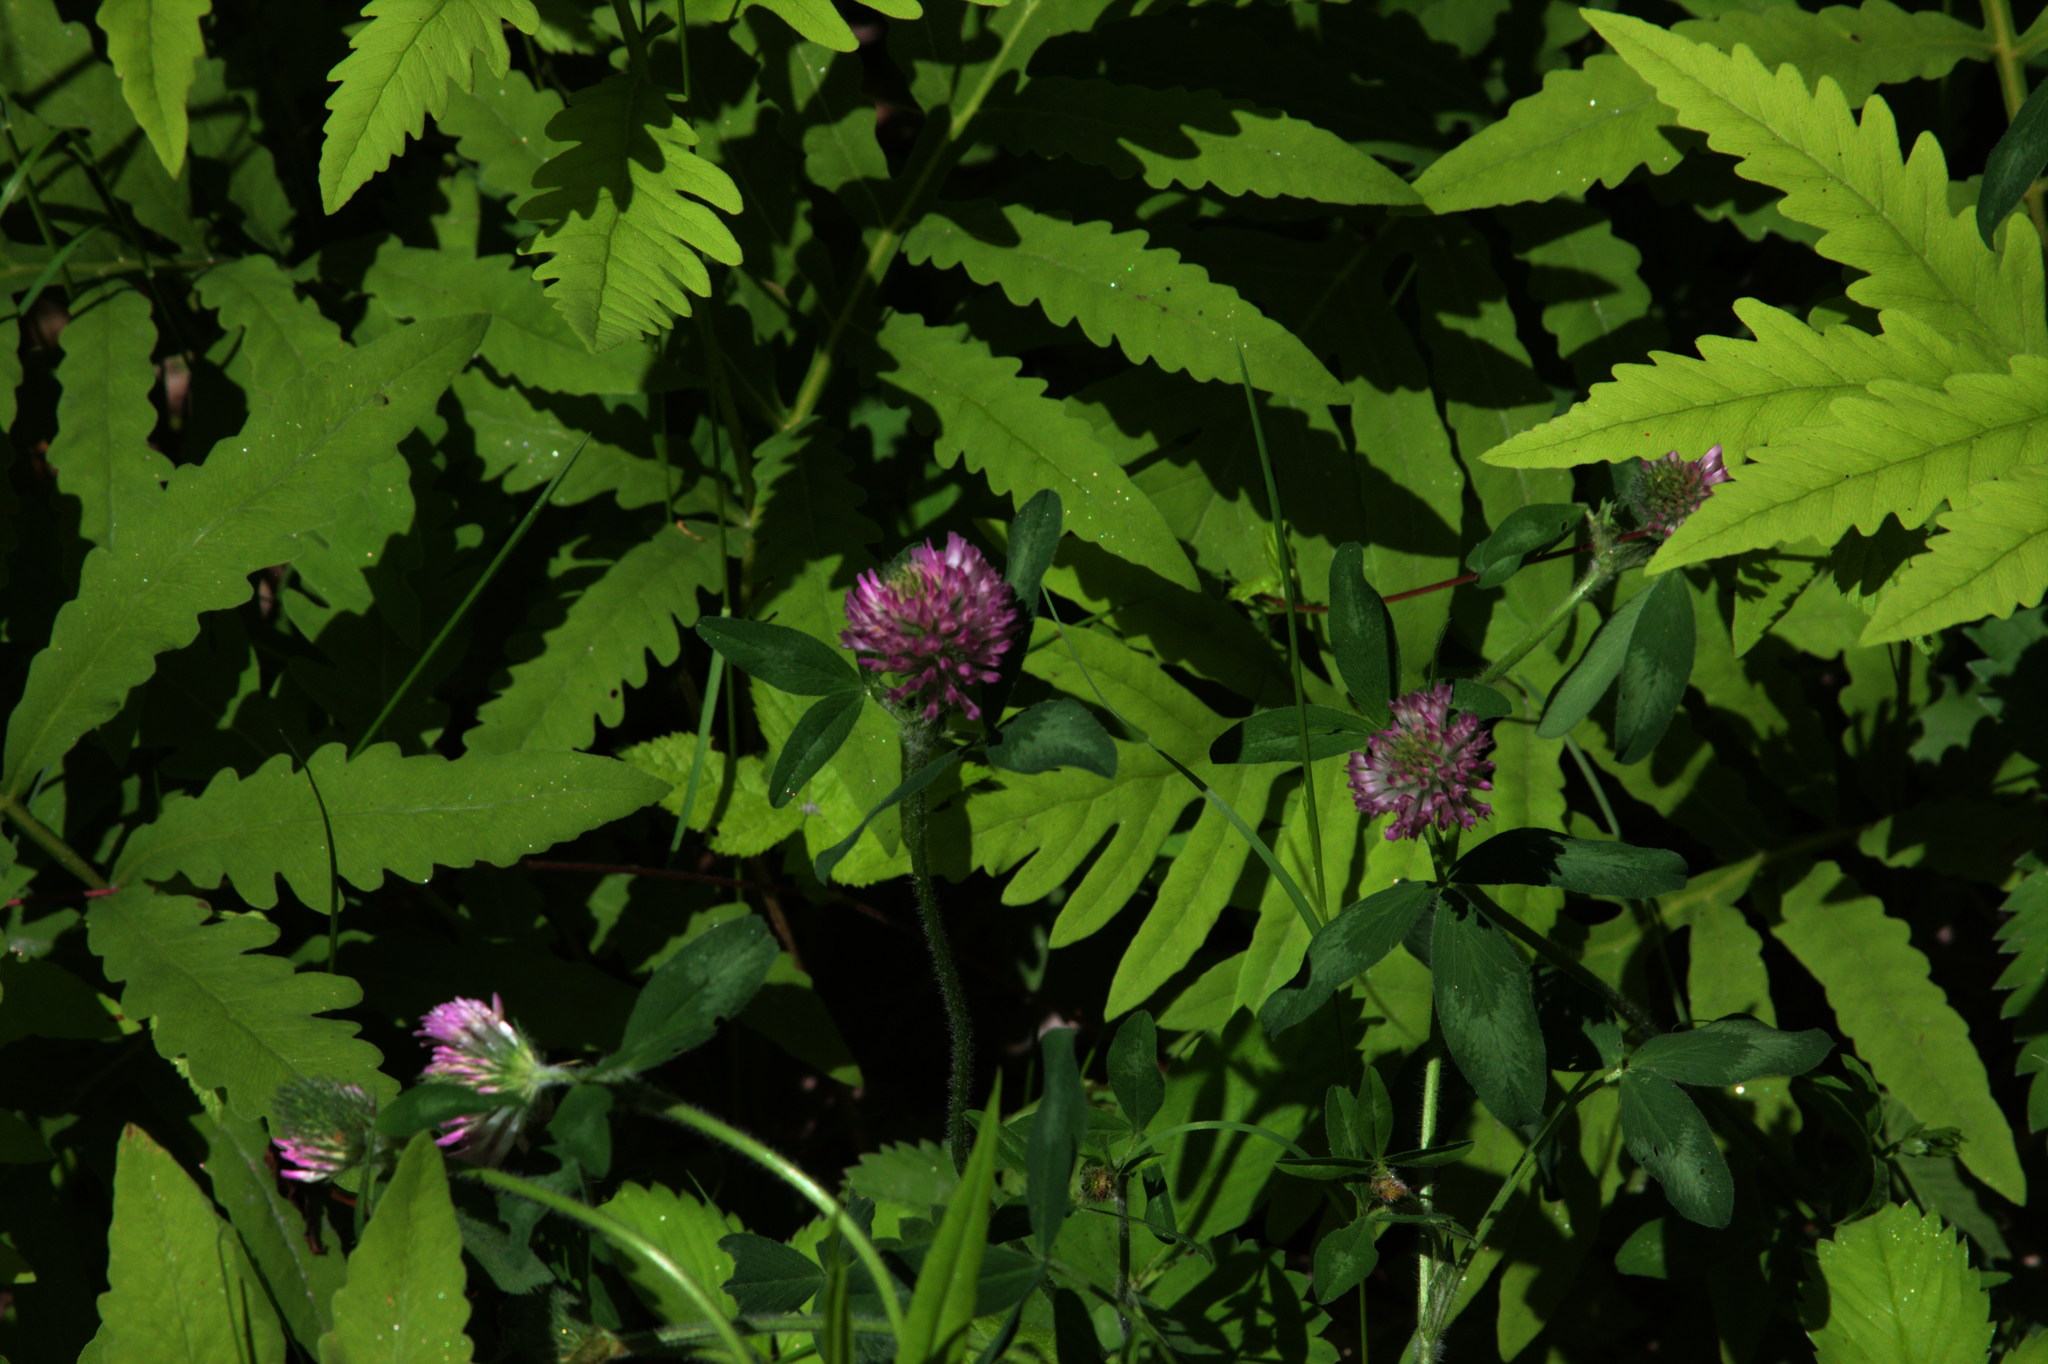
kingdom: Plantae
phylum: Tracheophyta
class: Magnoliopsida
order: Fabales
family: Fabaceae
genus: Trifolium
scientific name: Trifolium pratense
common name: Red clover
